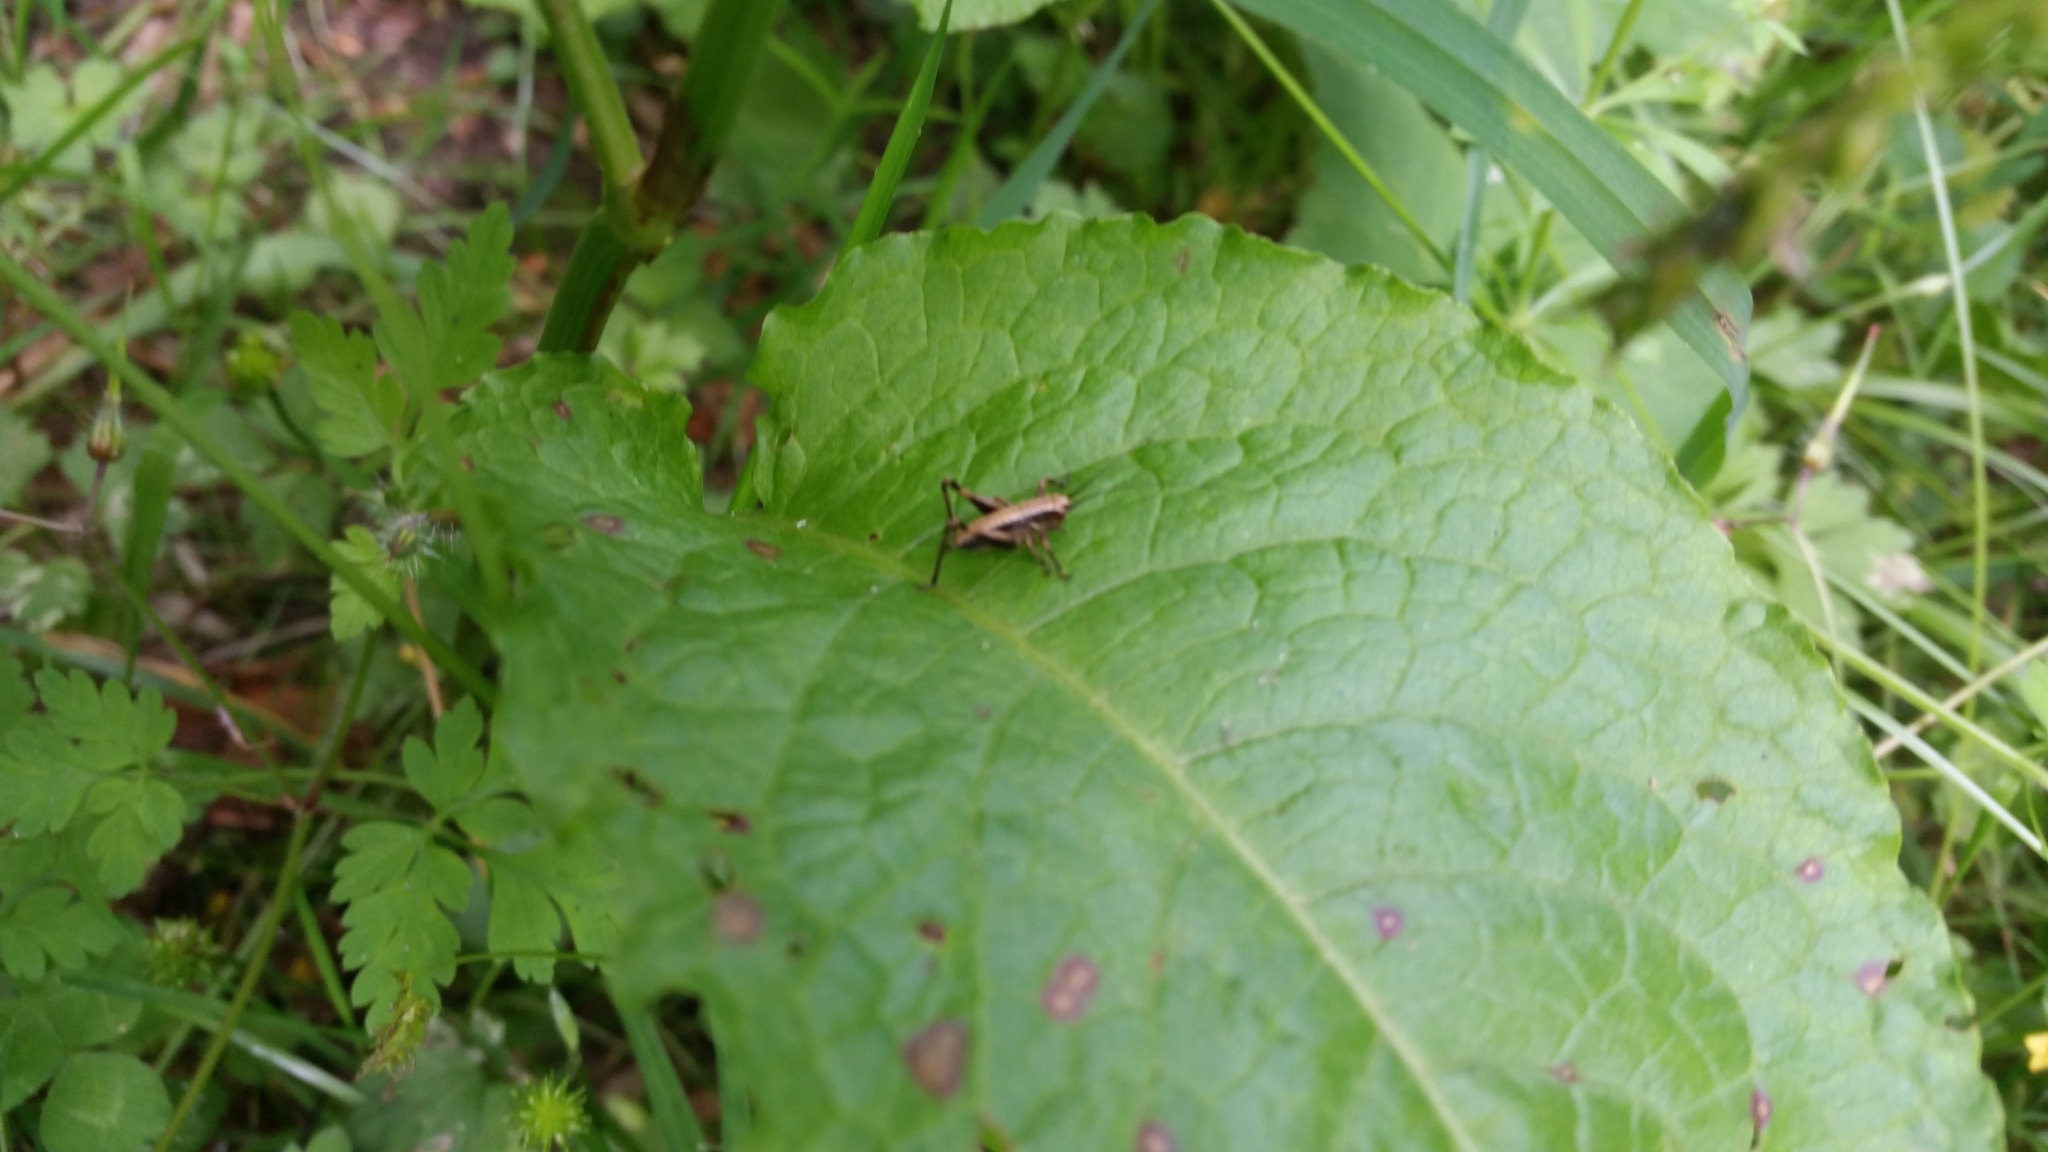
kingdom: Animalia
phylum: Arthropoda
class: Insecta
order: Orthoptera
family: Tettigoniidae
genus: Pholidoptera
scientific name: Pholidoptera griseoaptera
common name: Dark bush-cricket
